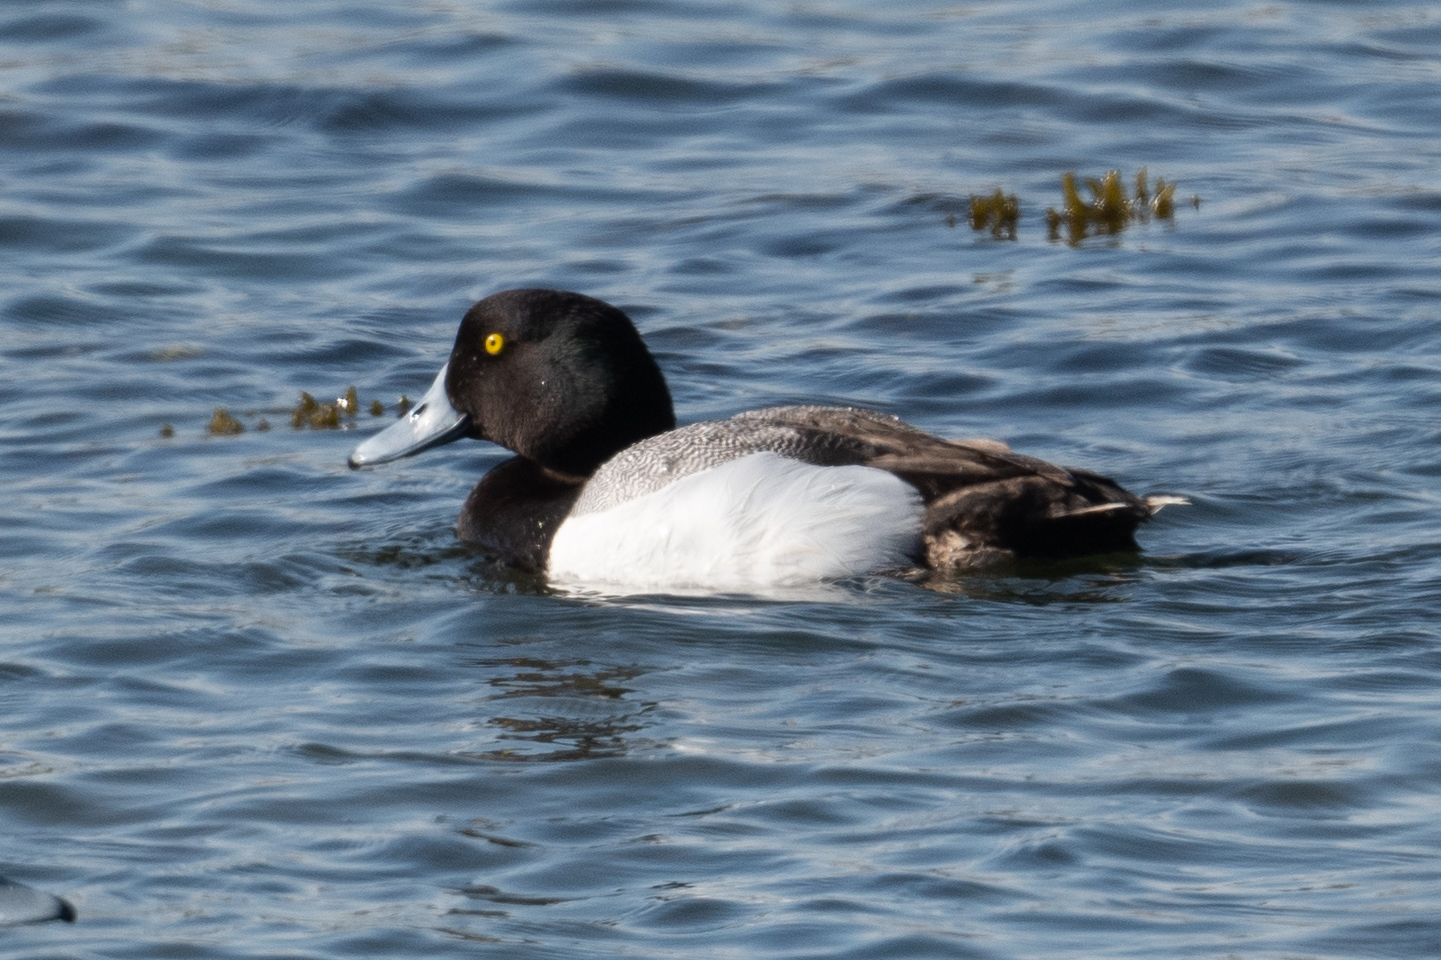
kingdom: Animalia
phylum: Chordata
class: Aves
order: Anseriformes
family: Anatidae
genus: Aythya
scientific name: Aythya marila
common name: Greater scaup
